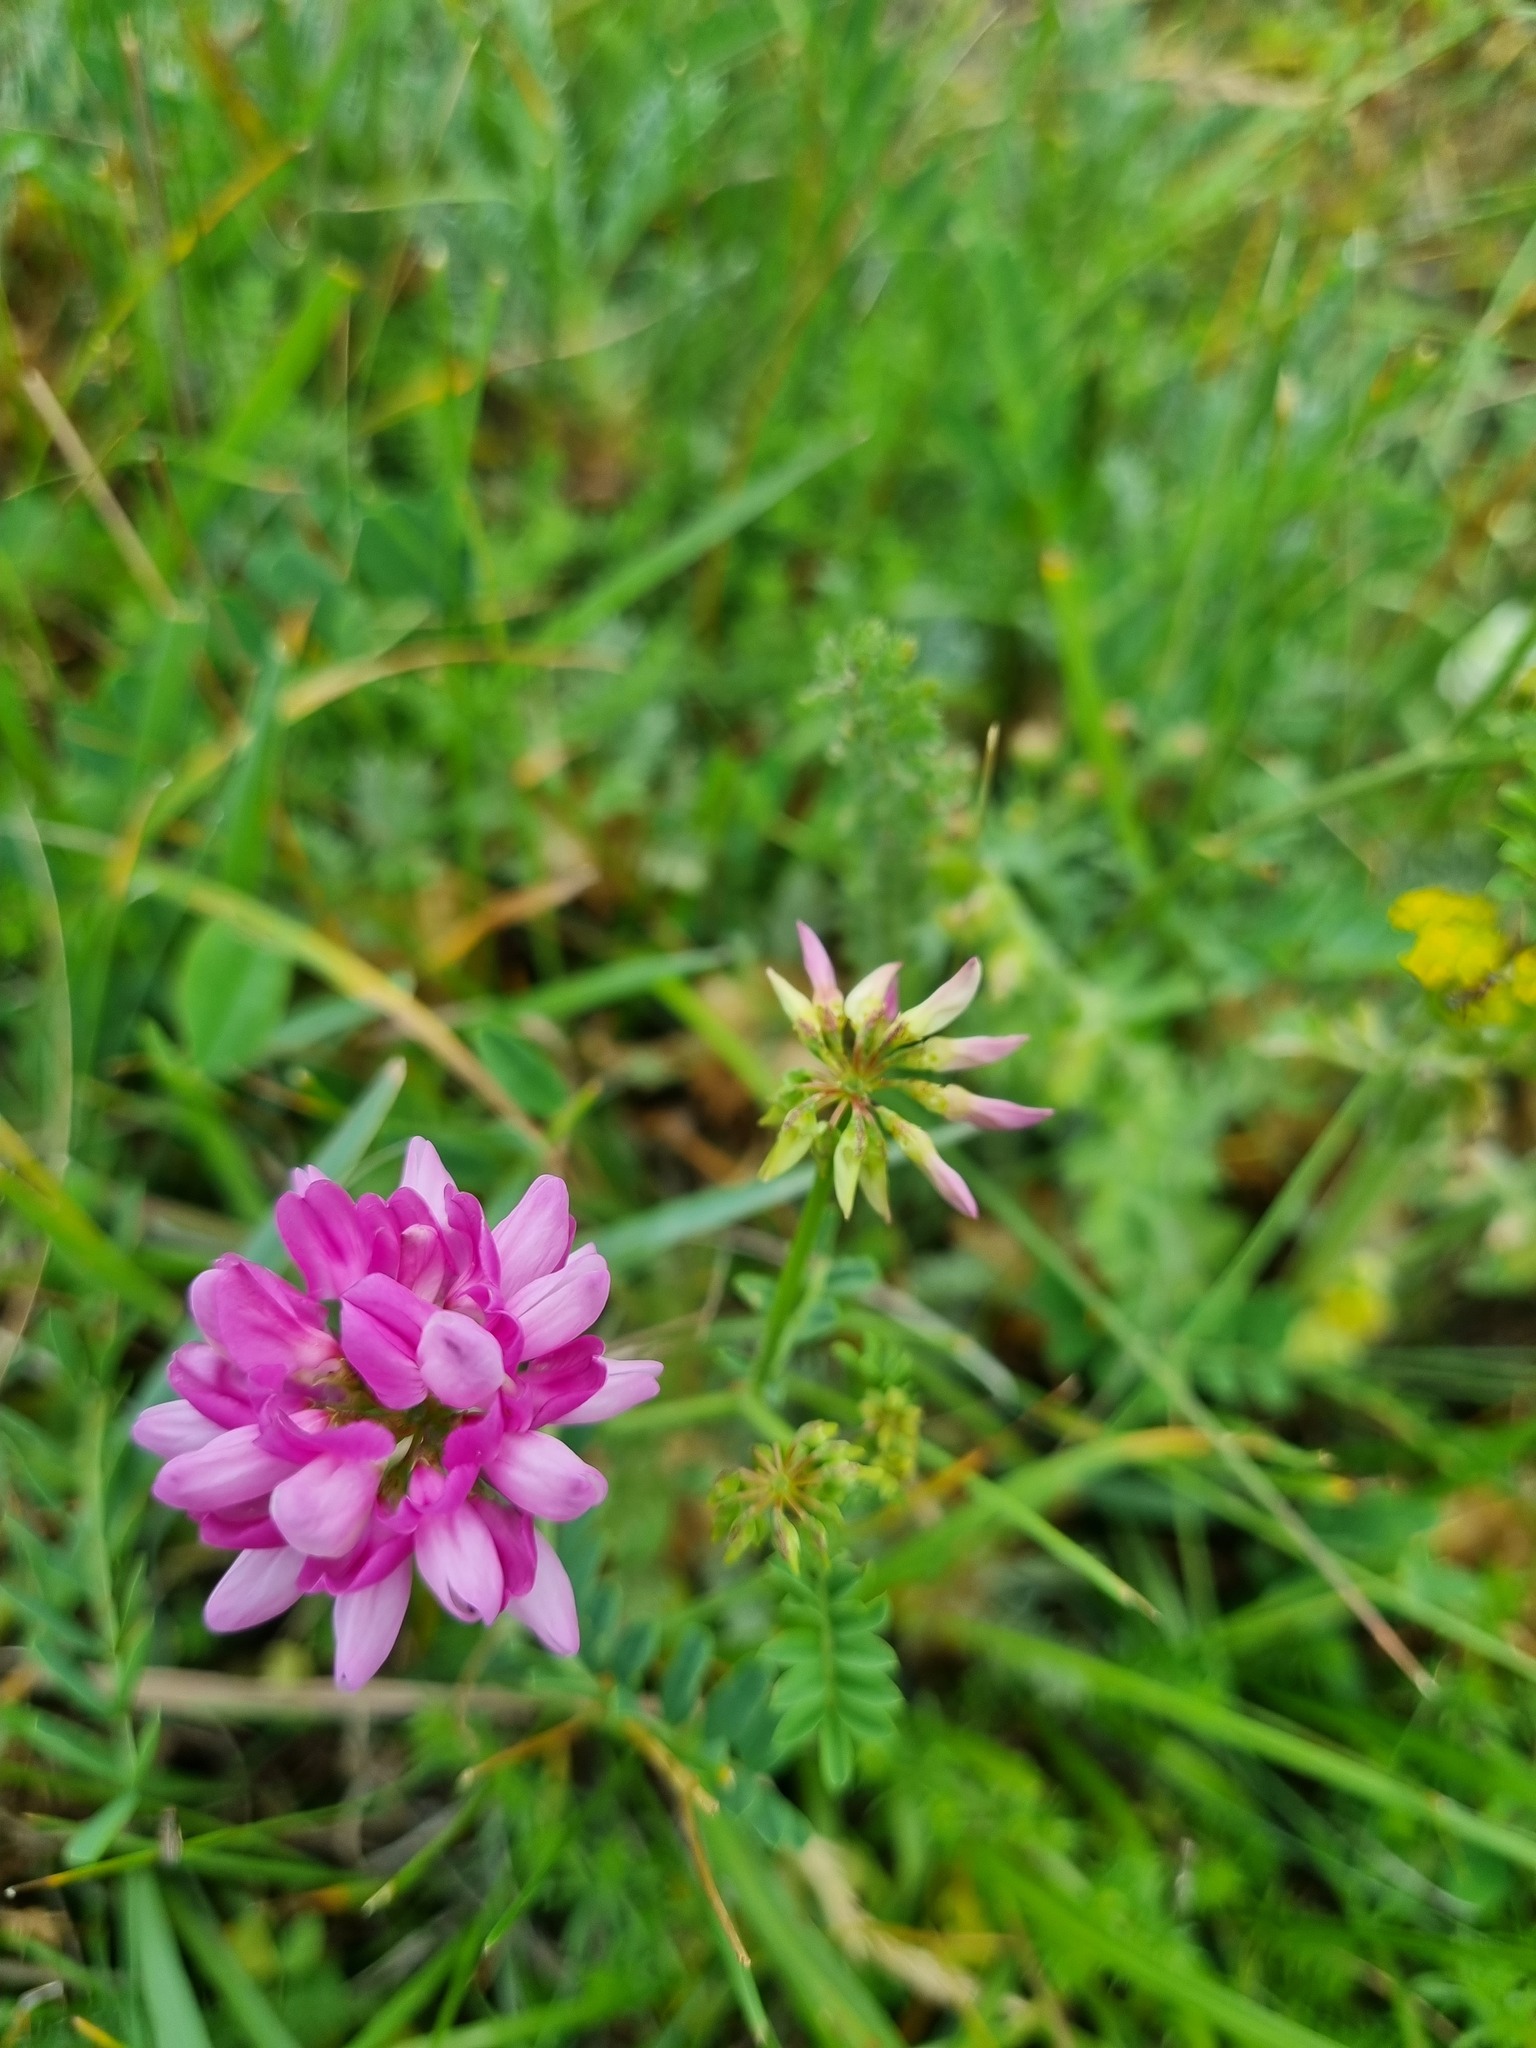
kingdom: Plantae
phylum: Tracheophyta
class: Magnoliopsida
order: Fabales
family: Fabaceae
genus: Coronilla
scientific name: Coronilla varia
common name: Crownvetch
